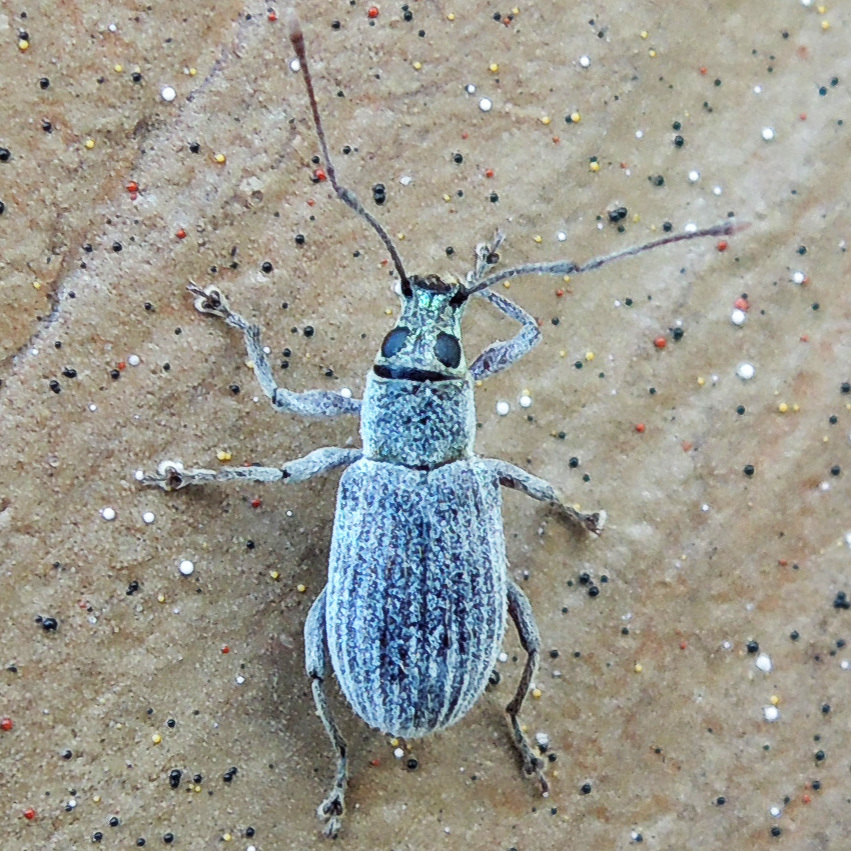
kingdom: Animalia
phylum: Arthropoda
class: Insecta
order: Coleoptera
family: Curculionidae
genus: Cyrtepistomus
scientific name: Cyrtepistomus castaneus
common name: Weevil
